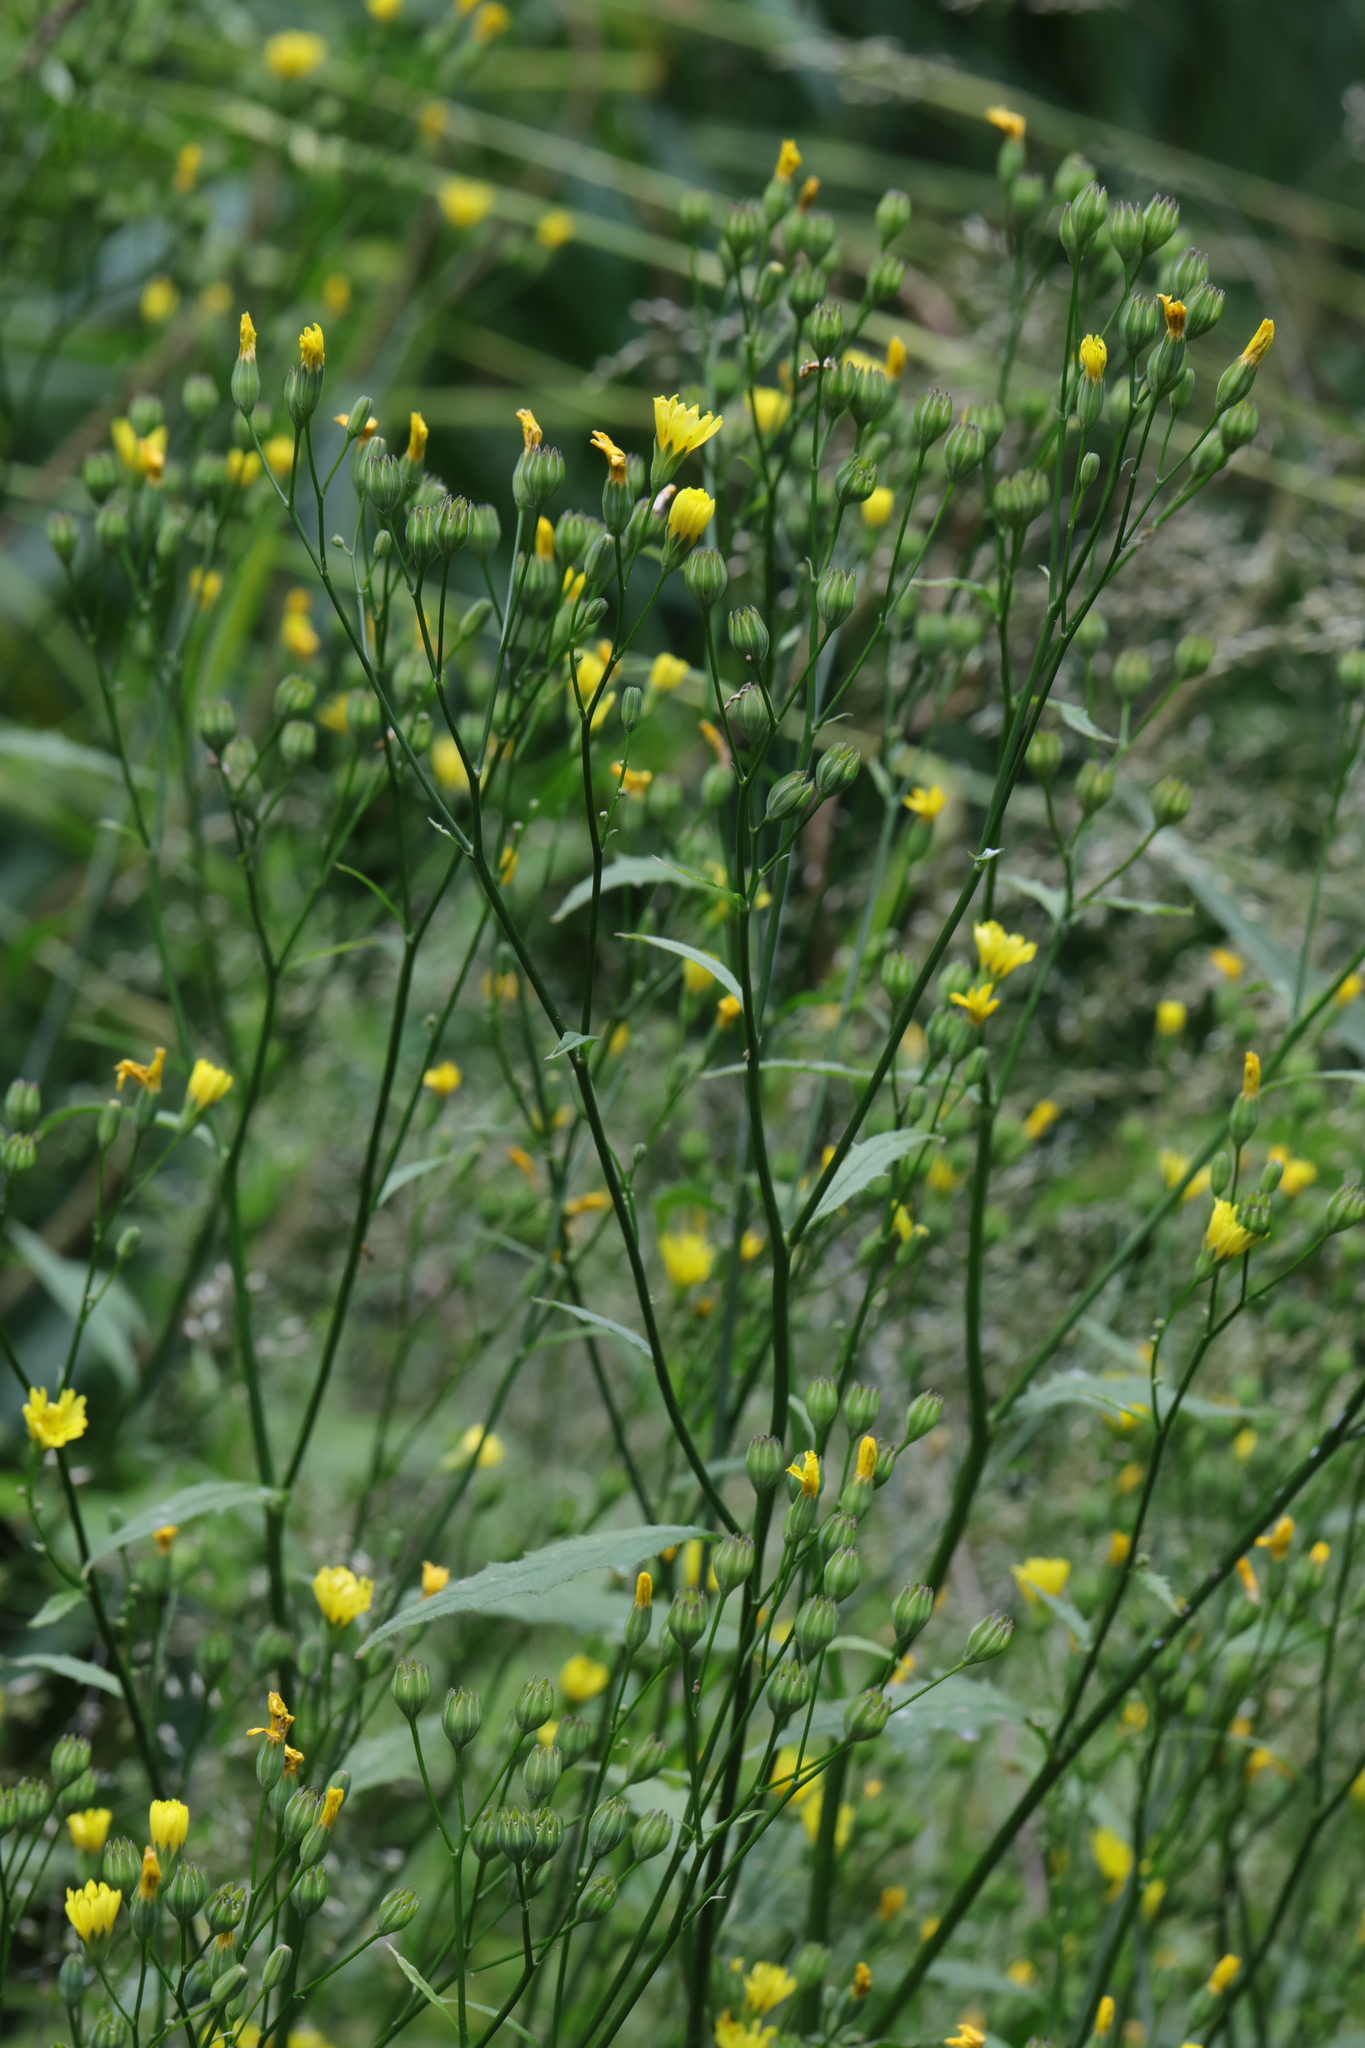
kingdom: Plantae
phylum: Tracheophyta
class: Magnoliopsida
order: Asterales
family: Asteraceae
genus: Lapsana
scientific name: Lapsana communis
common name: Nipplewort
